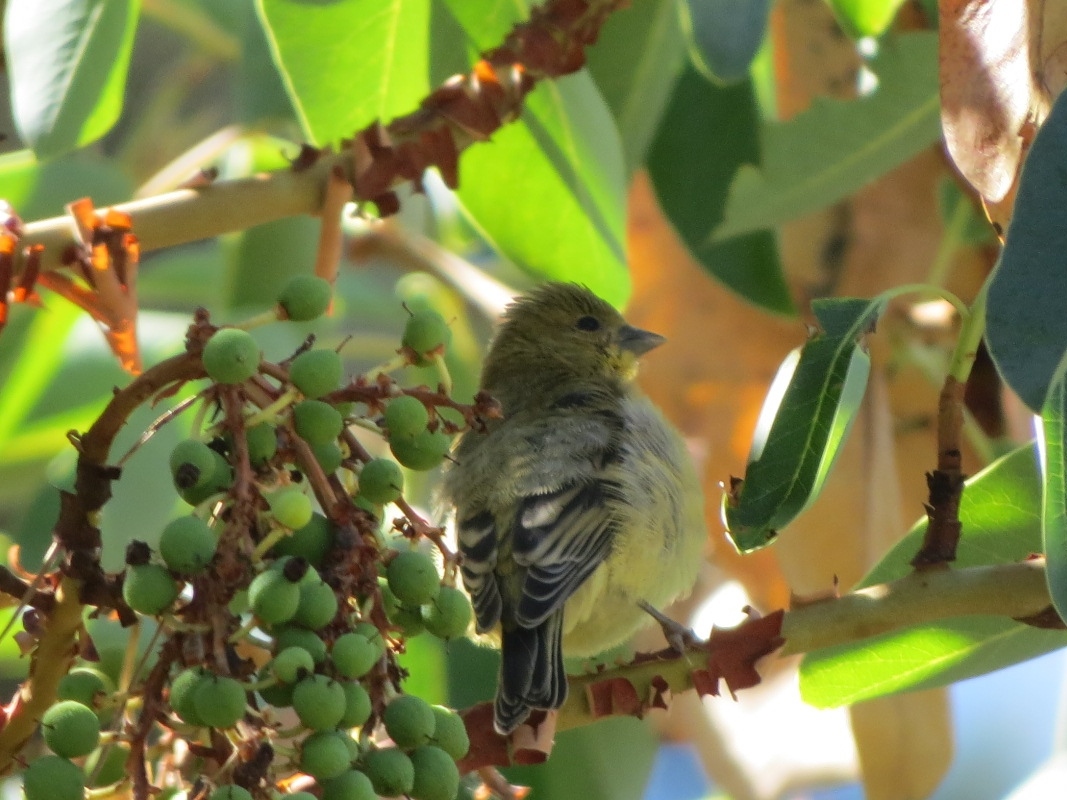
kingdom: Animalia
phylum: Chordata
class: Aves
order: Passeriformes
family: Fringillidae
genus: Spinus
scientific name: Spinus psaltria
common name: Lesser goldfinch
